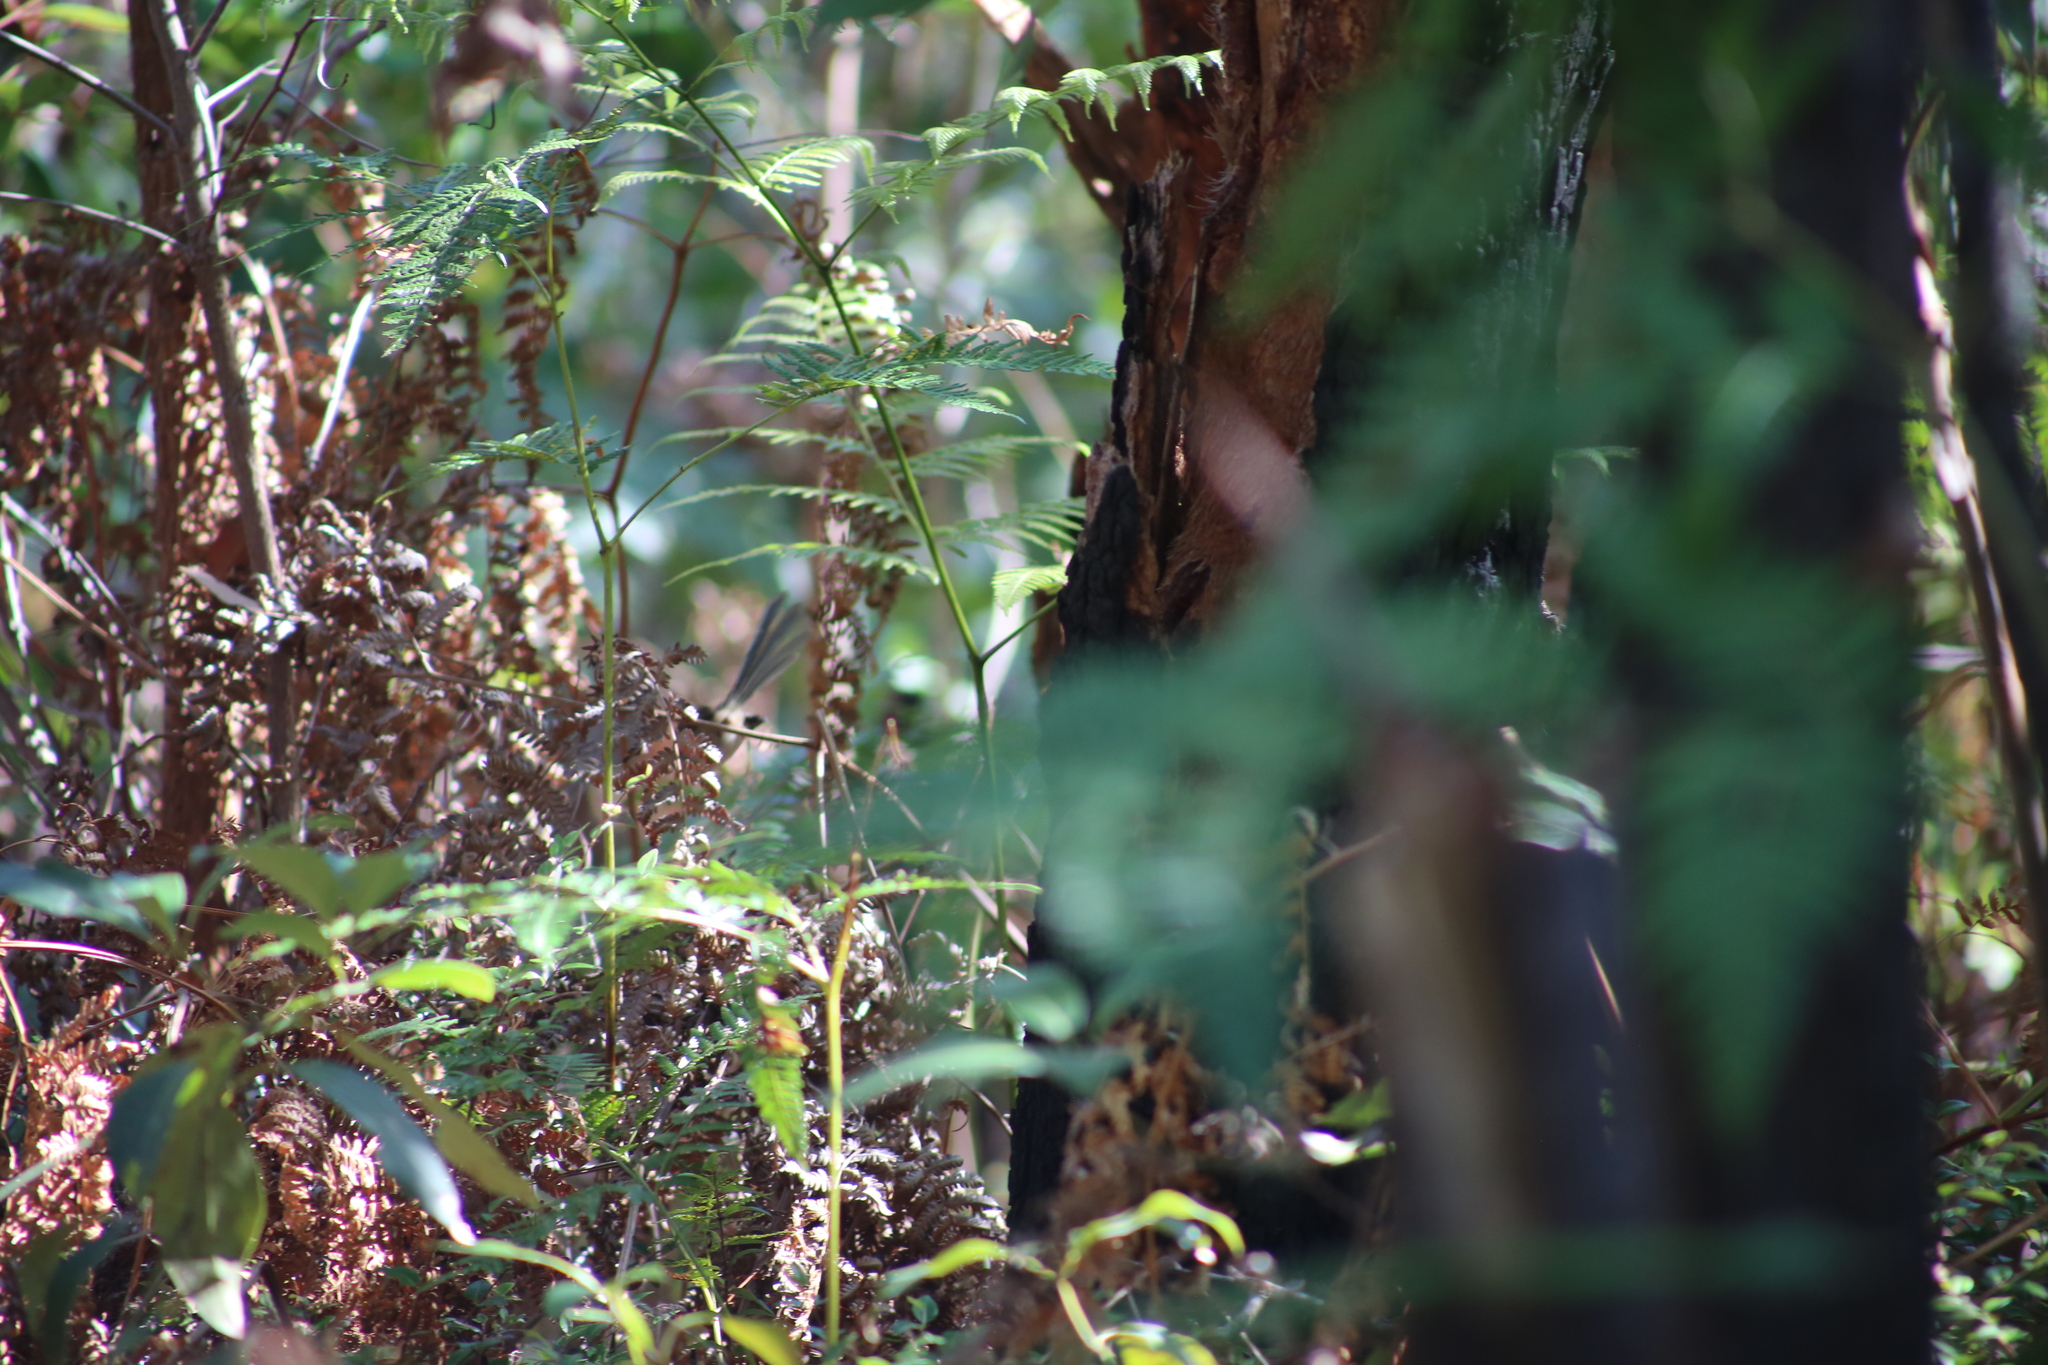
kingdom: Animalia
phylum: Chordata
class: Aves
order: Passeriformes
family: Maluridae
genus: Malurus
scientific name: Malurus lamberti
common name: Variegated fairywren
